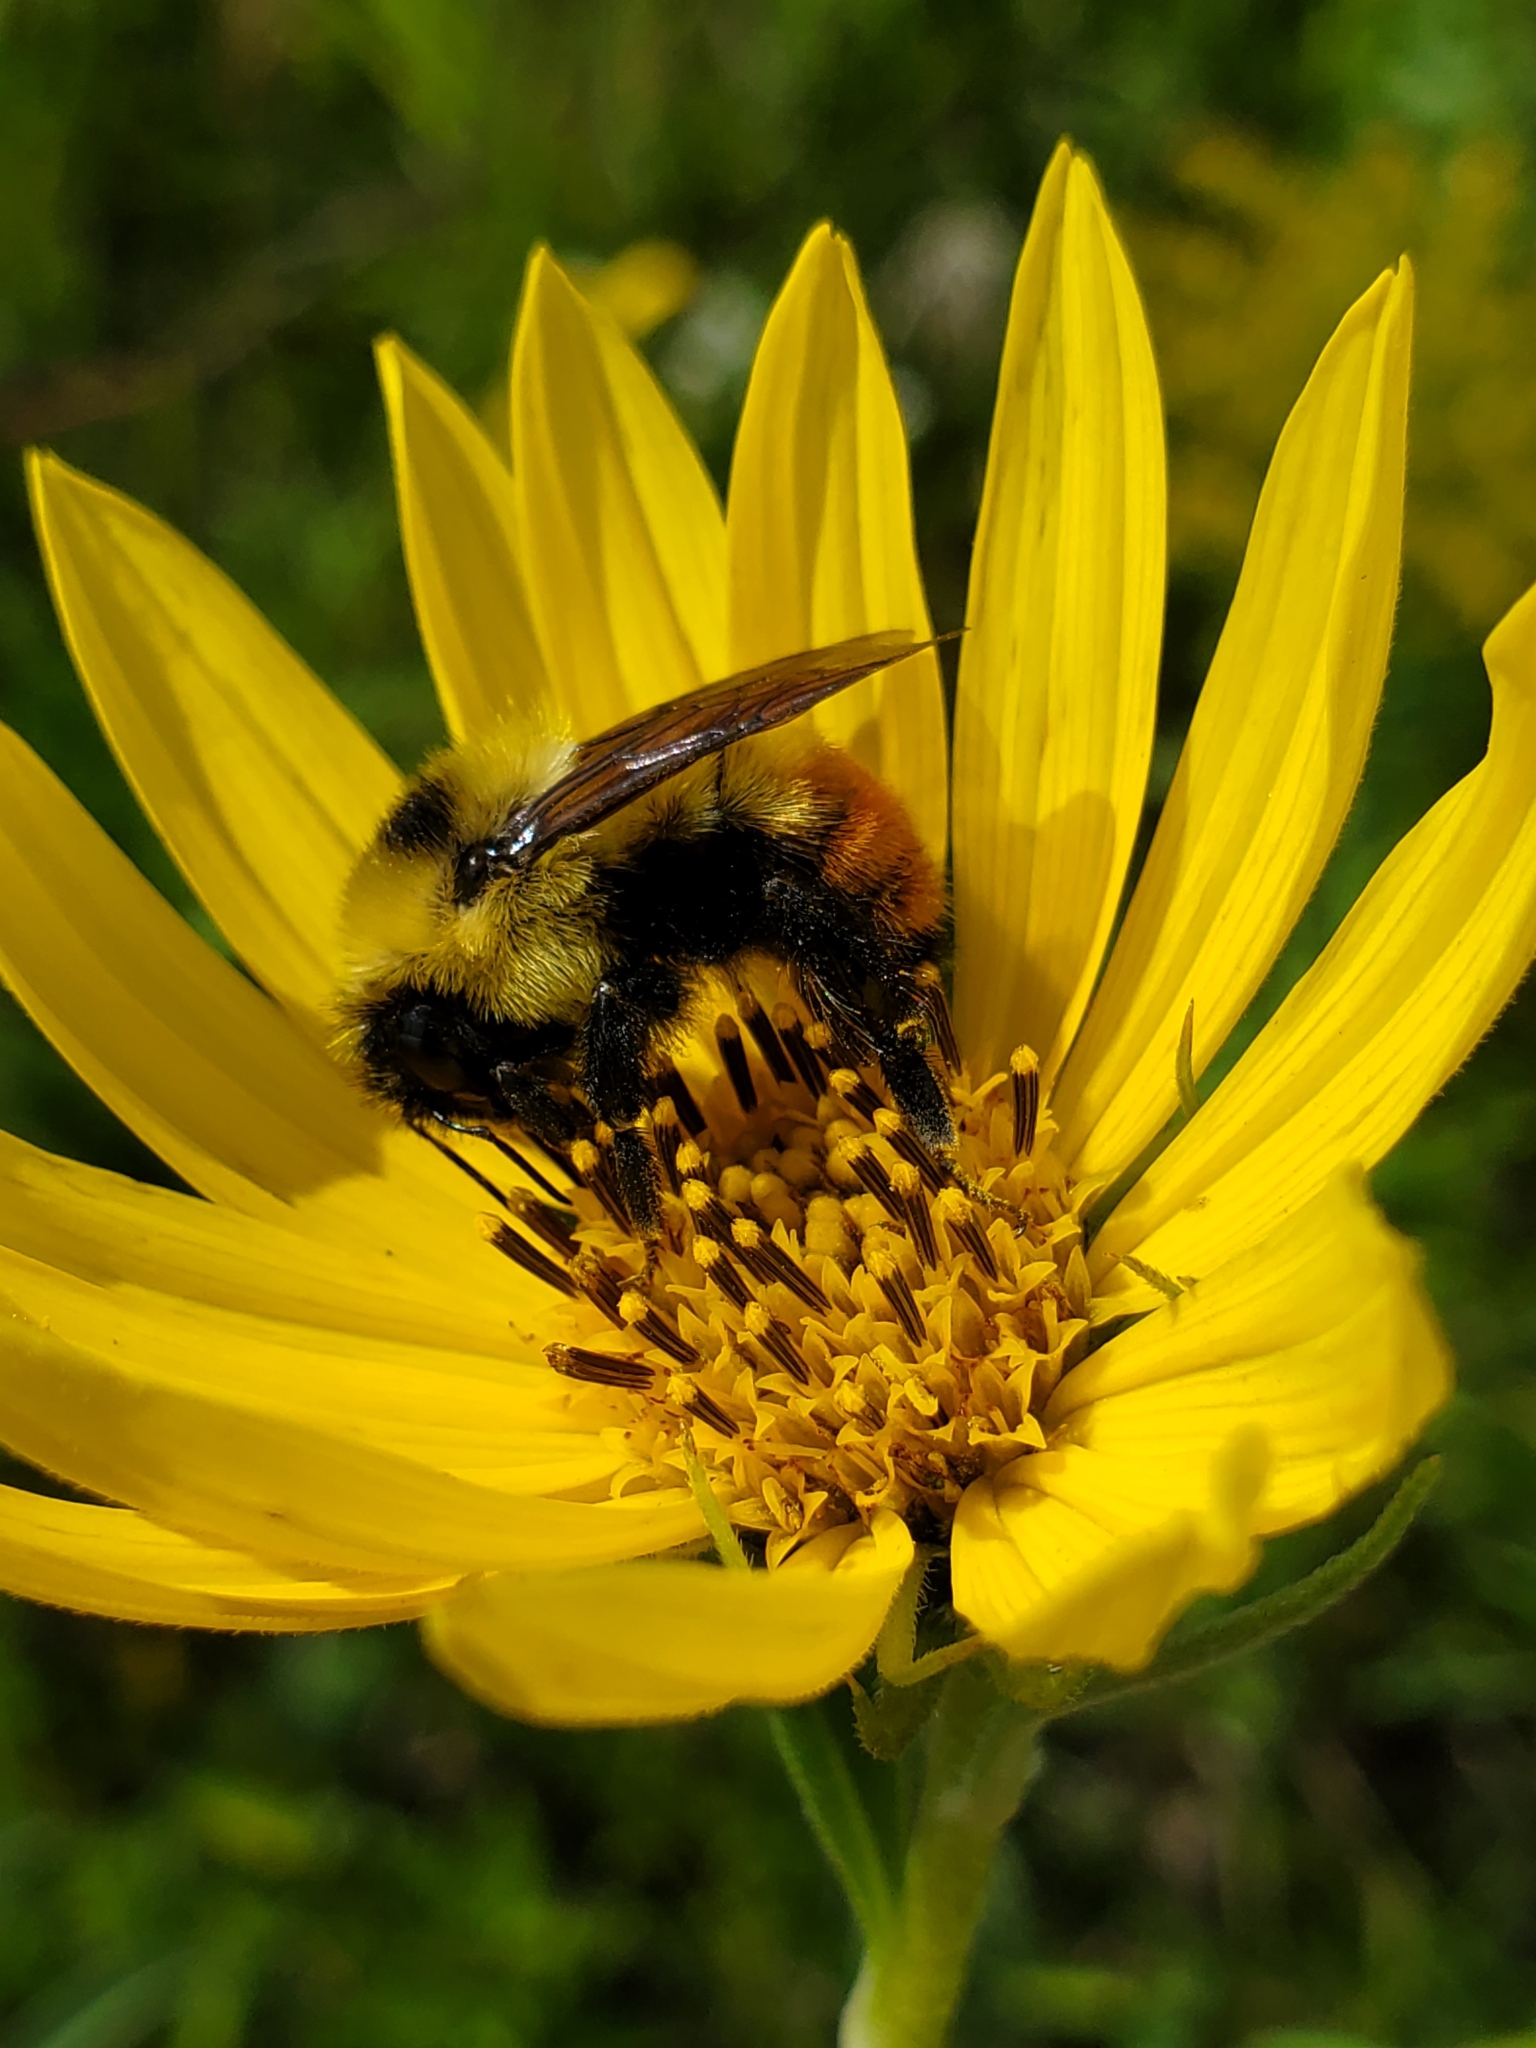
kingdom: Animalia
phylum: Arthropoda
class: Insecta
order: Hymenoptera
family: Apidae
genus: Bombus
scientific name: Bombus rufocinctus
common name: Red-belted bumble bee
